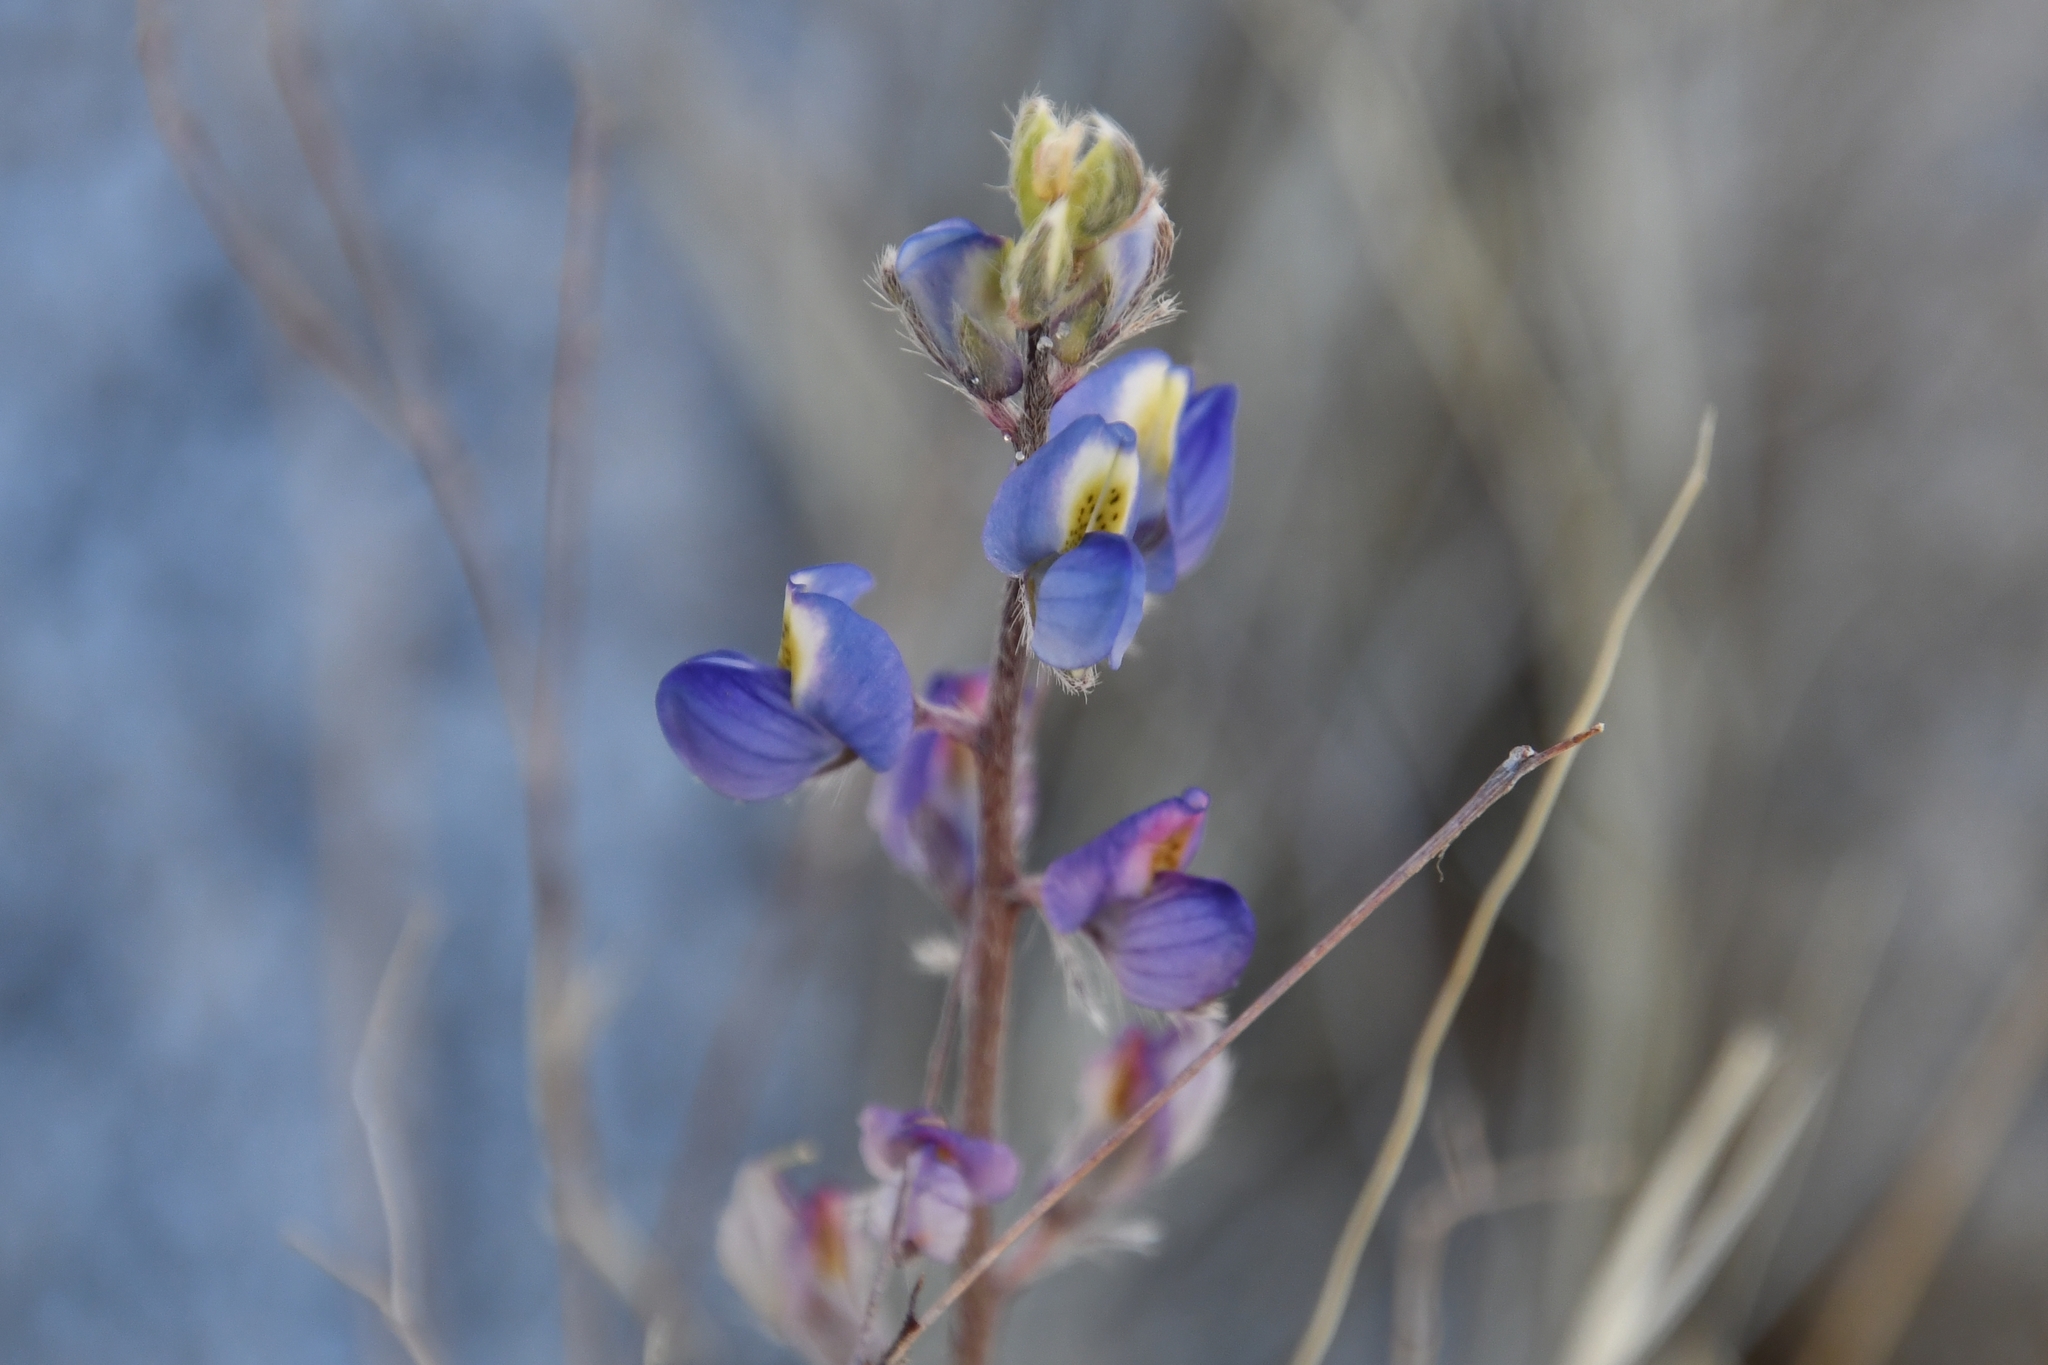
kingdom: Plantae
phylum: Tracheophyta
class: Magnoliopsida
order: Fabales
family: Fabaceae
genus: Lupinus
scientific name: Lupinus sparsiflorus
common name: Coulter's lupine
